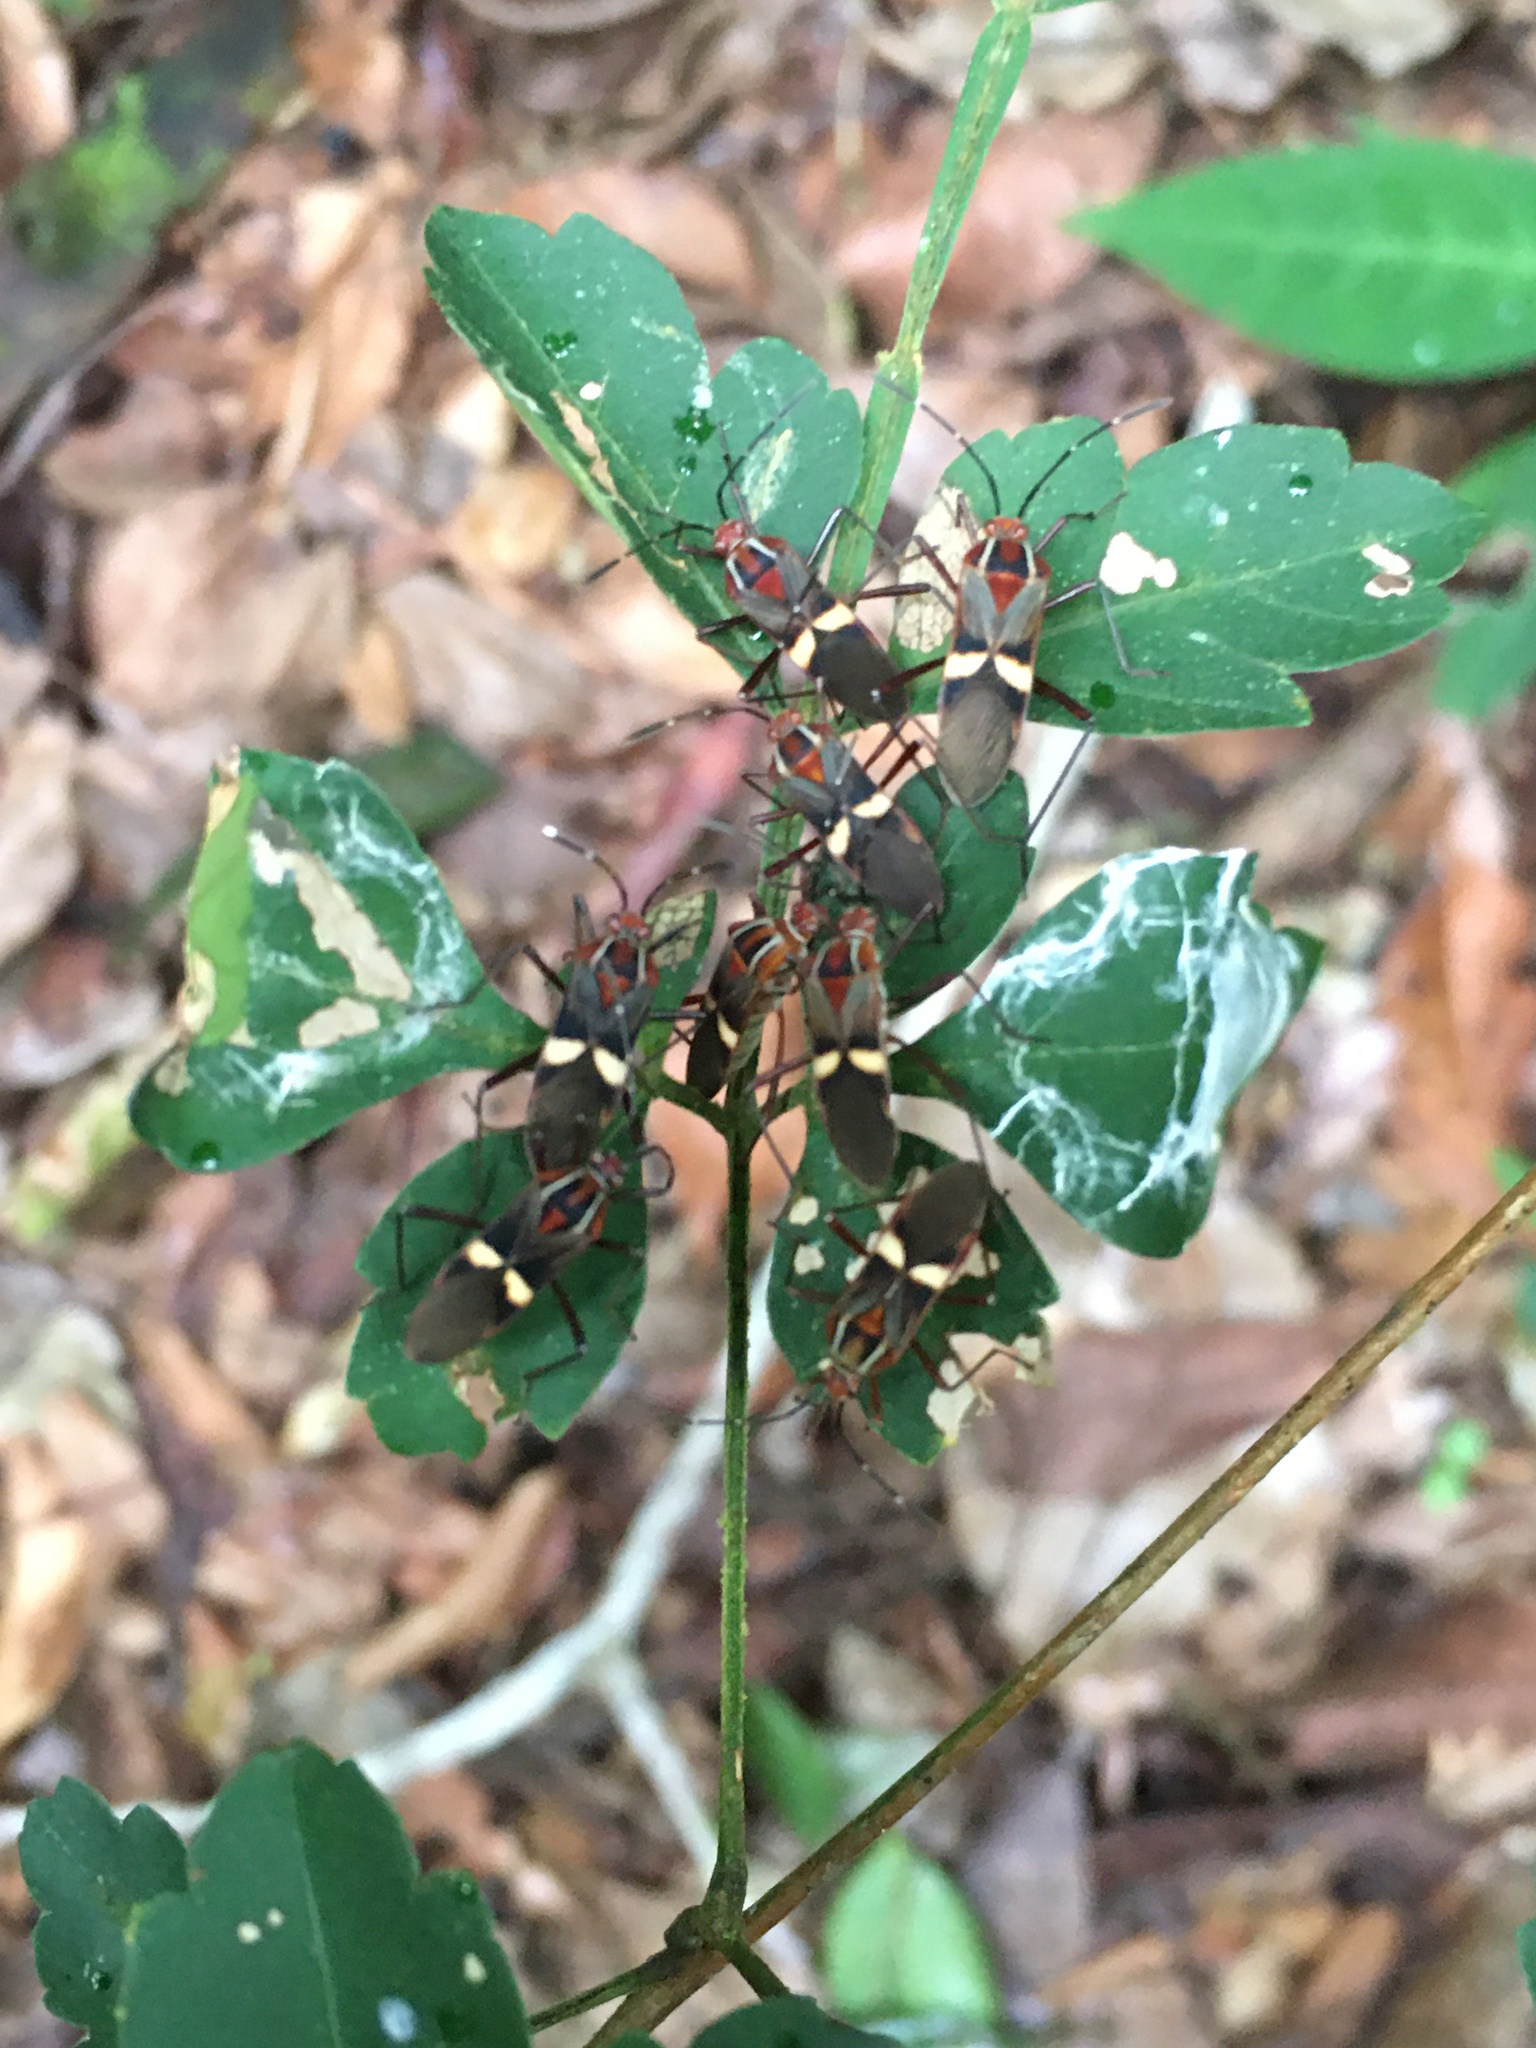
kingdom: Animalia
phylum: Arthropoda
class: Insecta
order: Hemiptera
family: Coreidae
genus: Hypselonotus
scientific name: Hypselonotus interruptus
